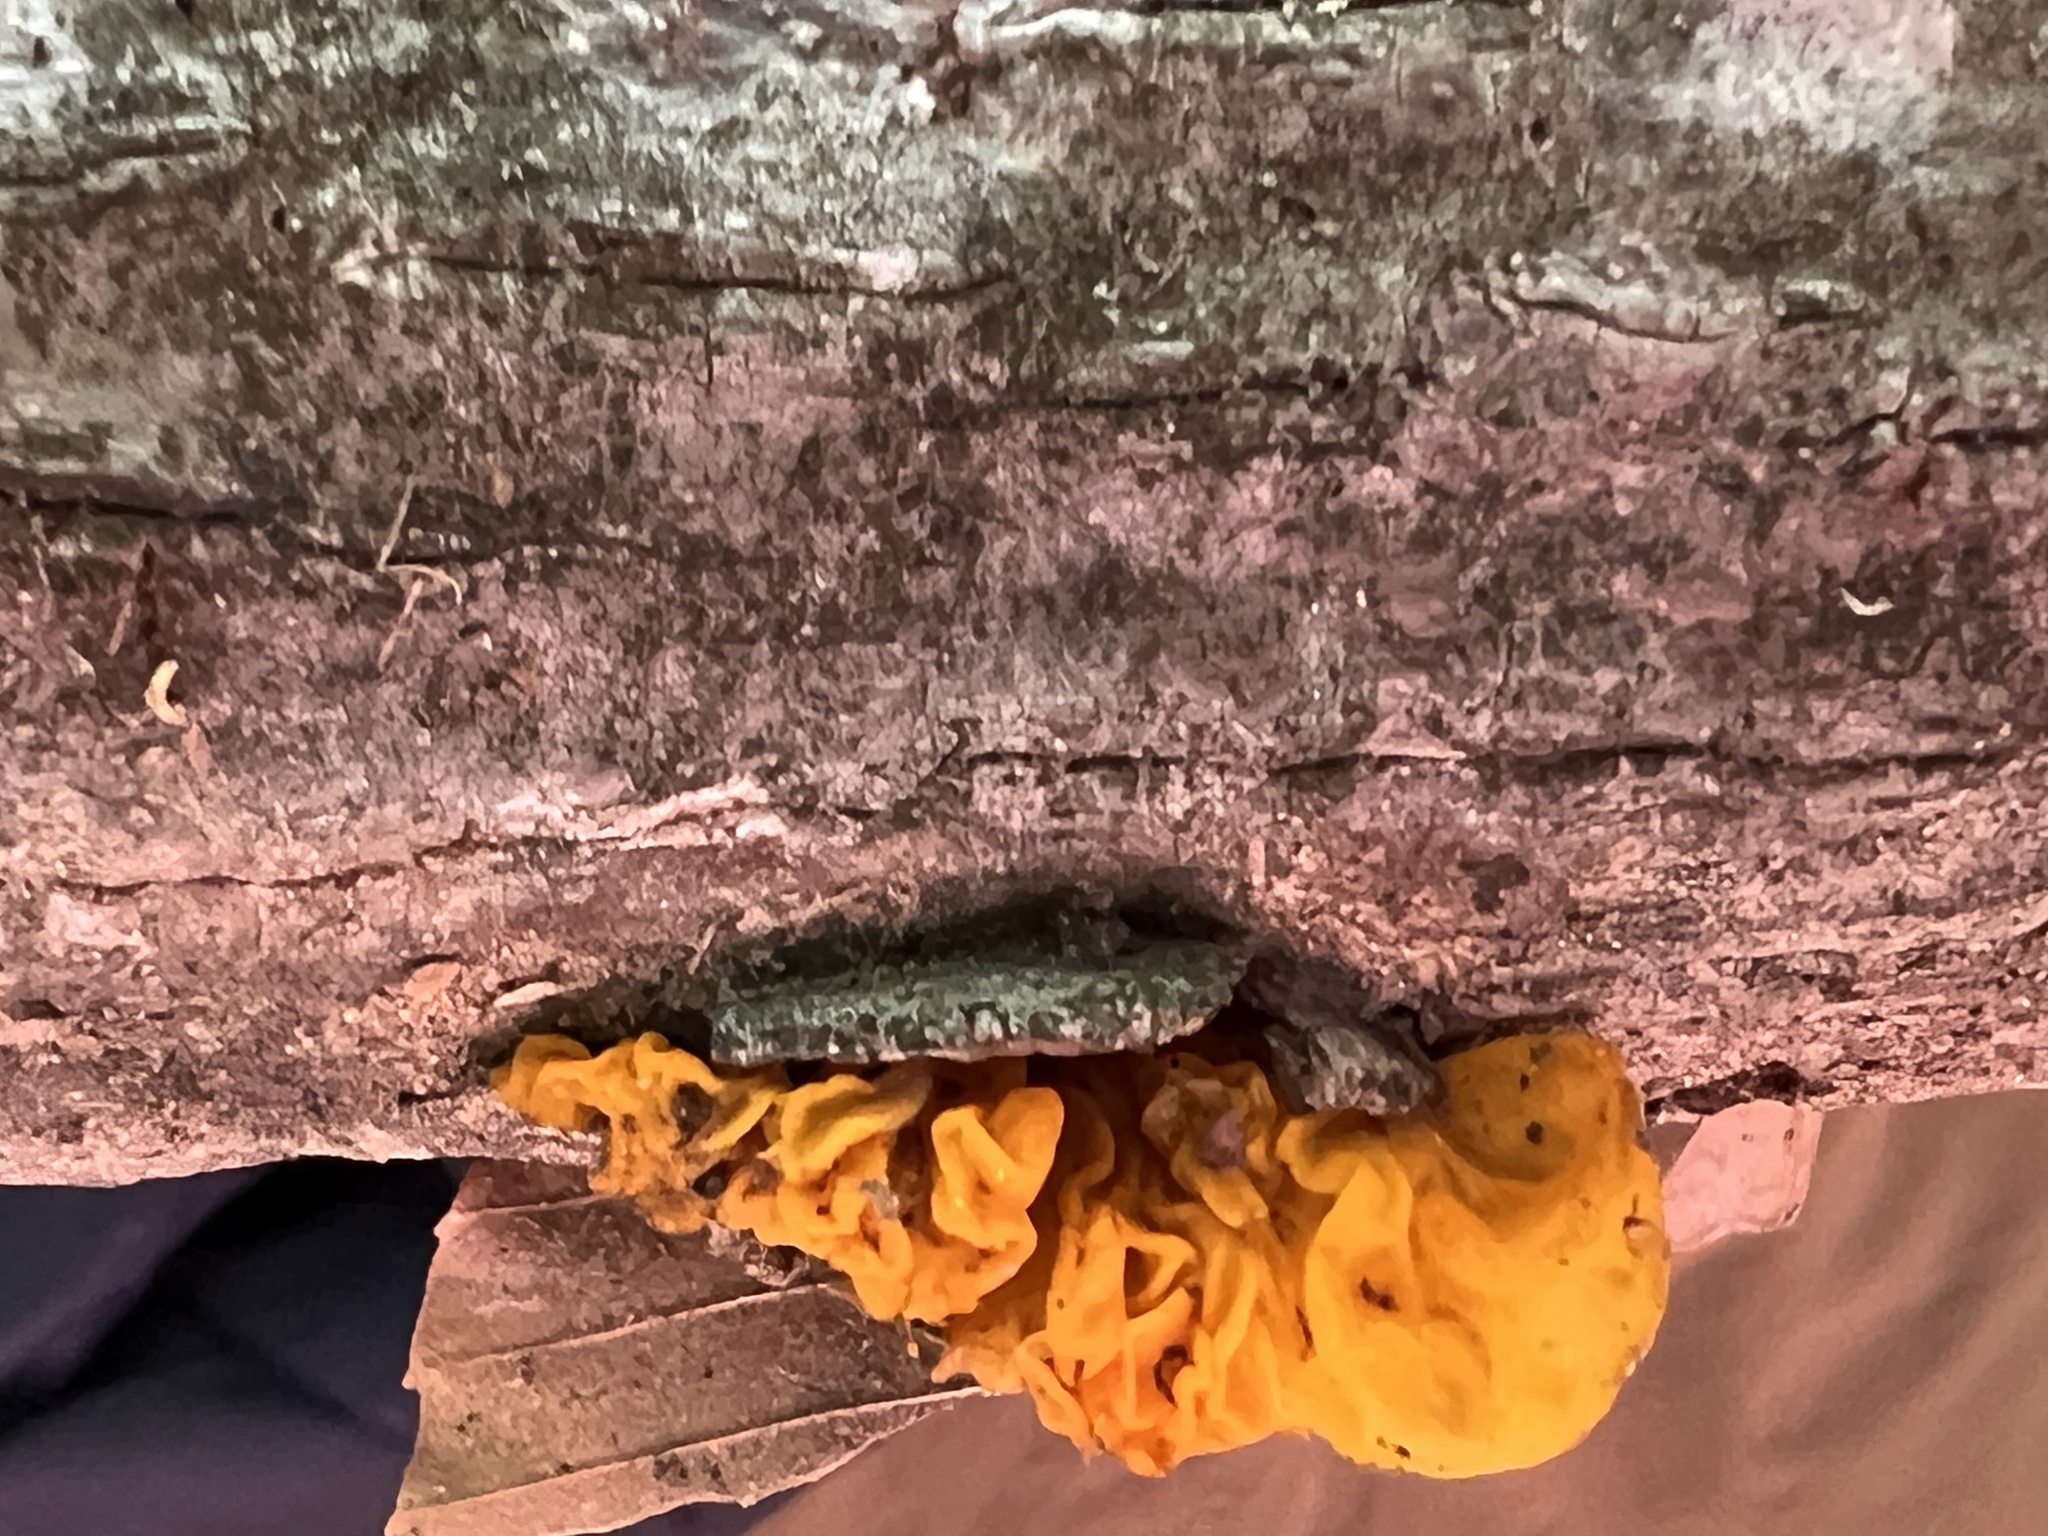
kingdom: Fungi
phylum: Basidiomycota
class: Tremellomycetes
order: Tremellales
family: Tremellaceae
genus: Tremella
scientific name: Tremella mesenterica
